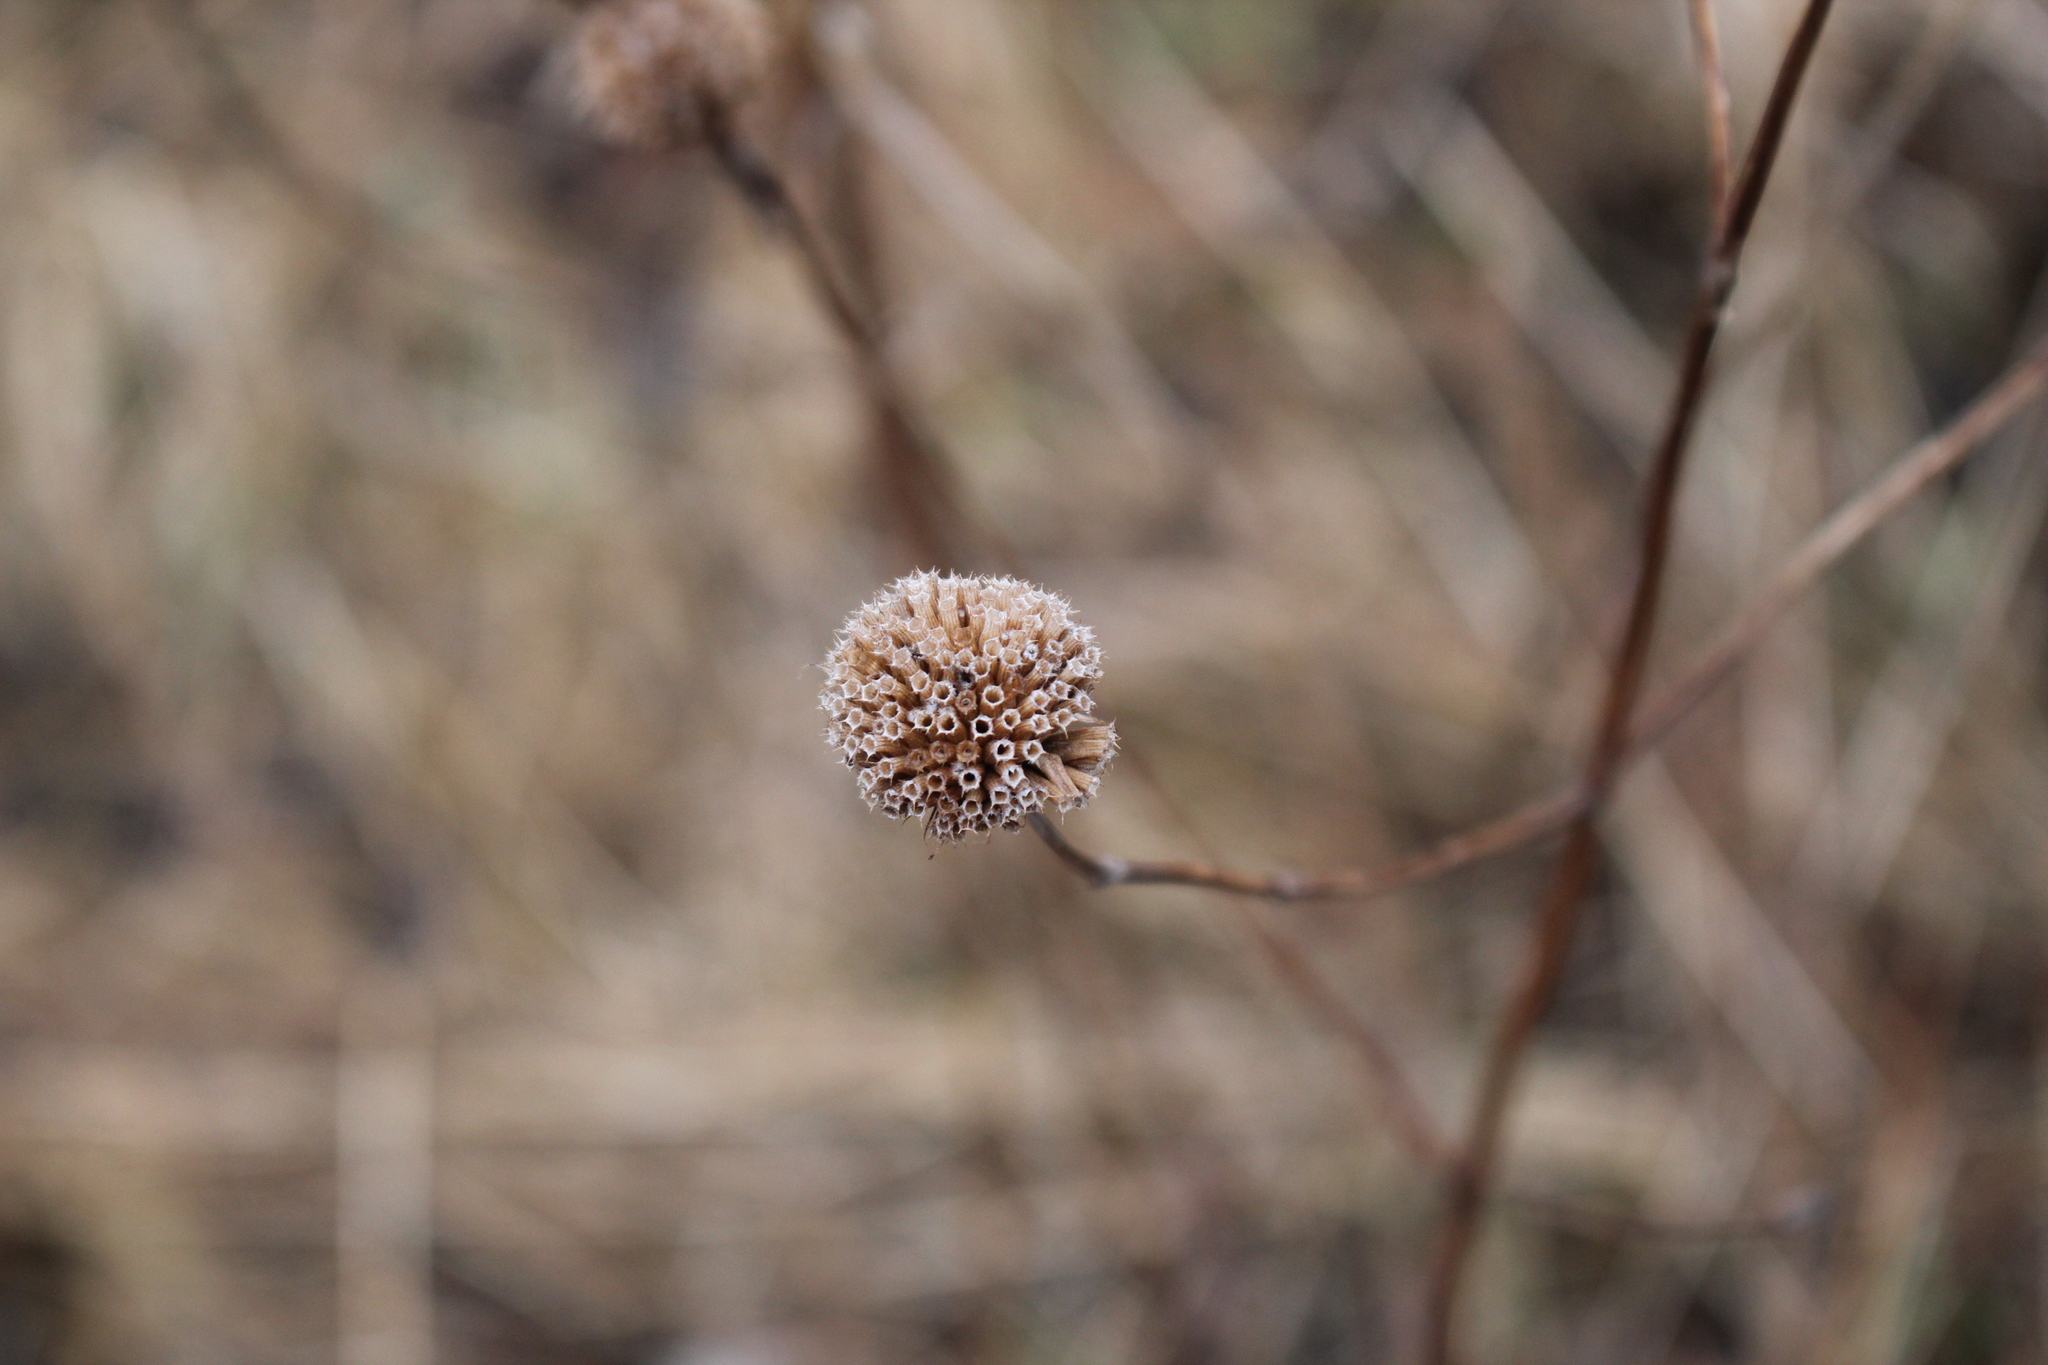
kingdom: Plantae
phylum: Tracheophyta
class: Magnoliopsida
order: Lamiales
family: Lamiaceae
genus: Monarda
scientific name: Monarda fistulosa
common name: Purple beebalm
